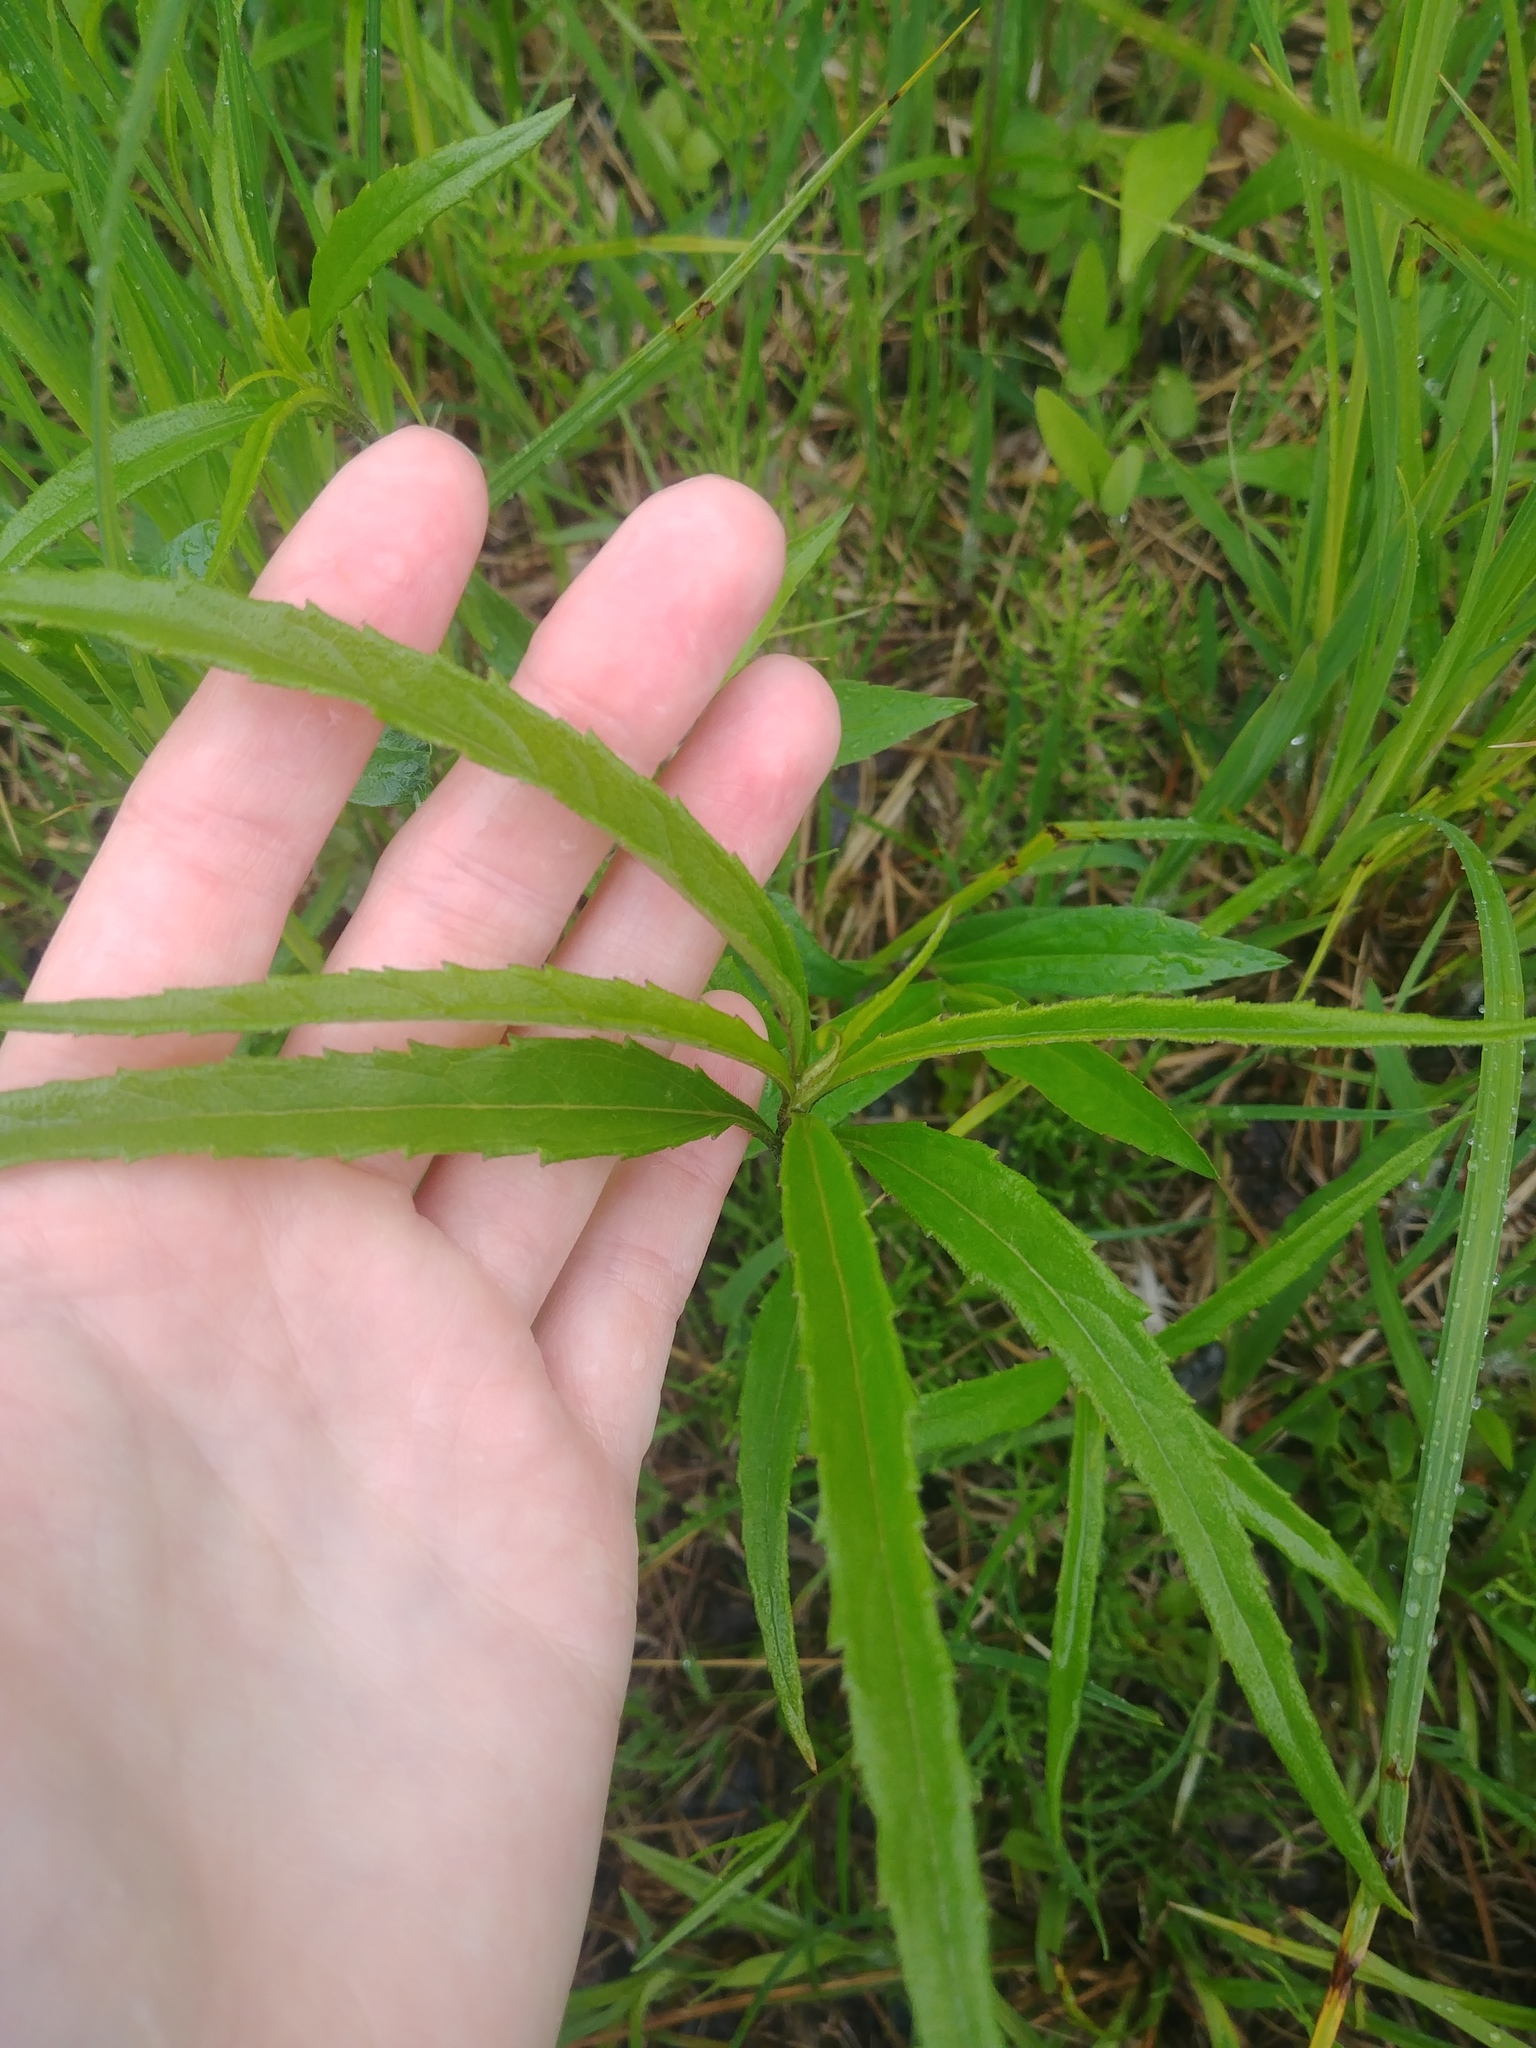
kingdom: Plantae
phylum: Tracheophyta
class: Magnoliopsida
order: Asterales
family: Asteraceae
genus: Helianthus
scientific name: Helianthus grosseserratus
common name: Sawtooth sunflower
